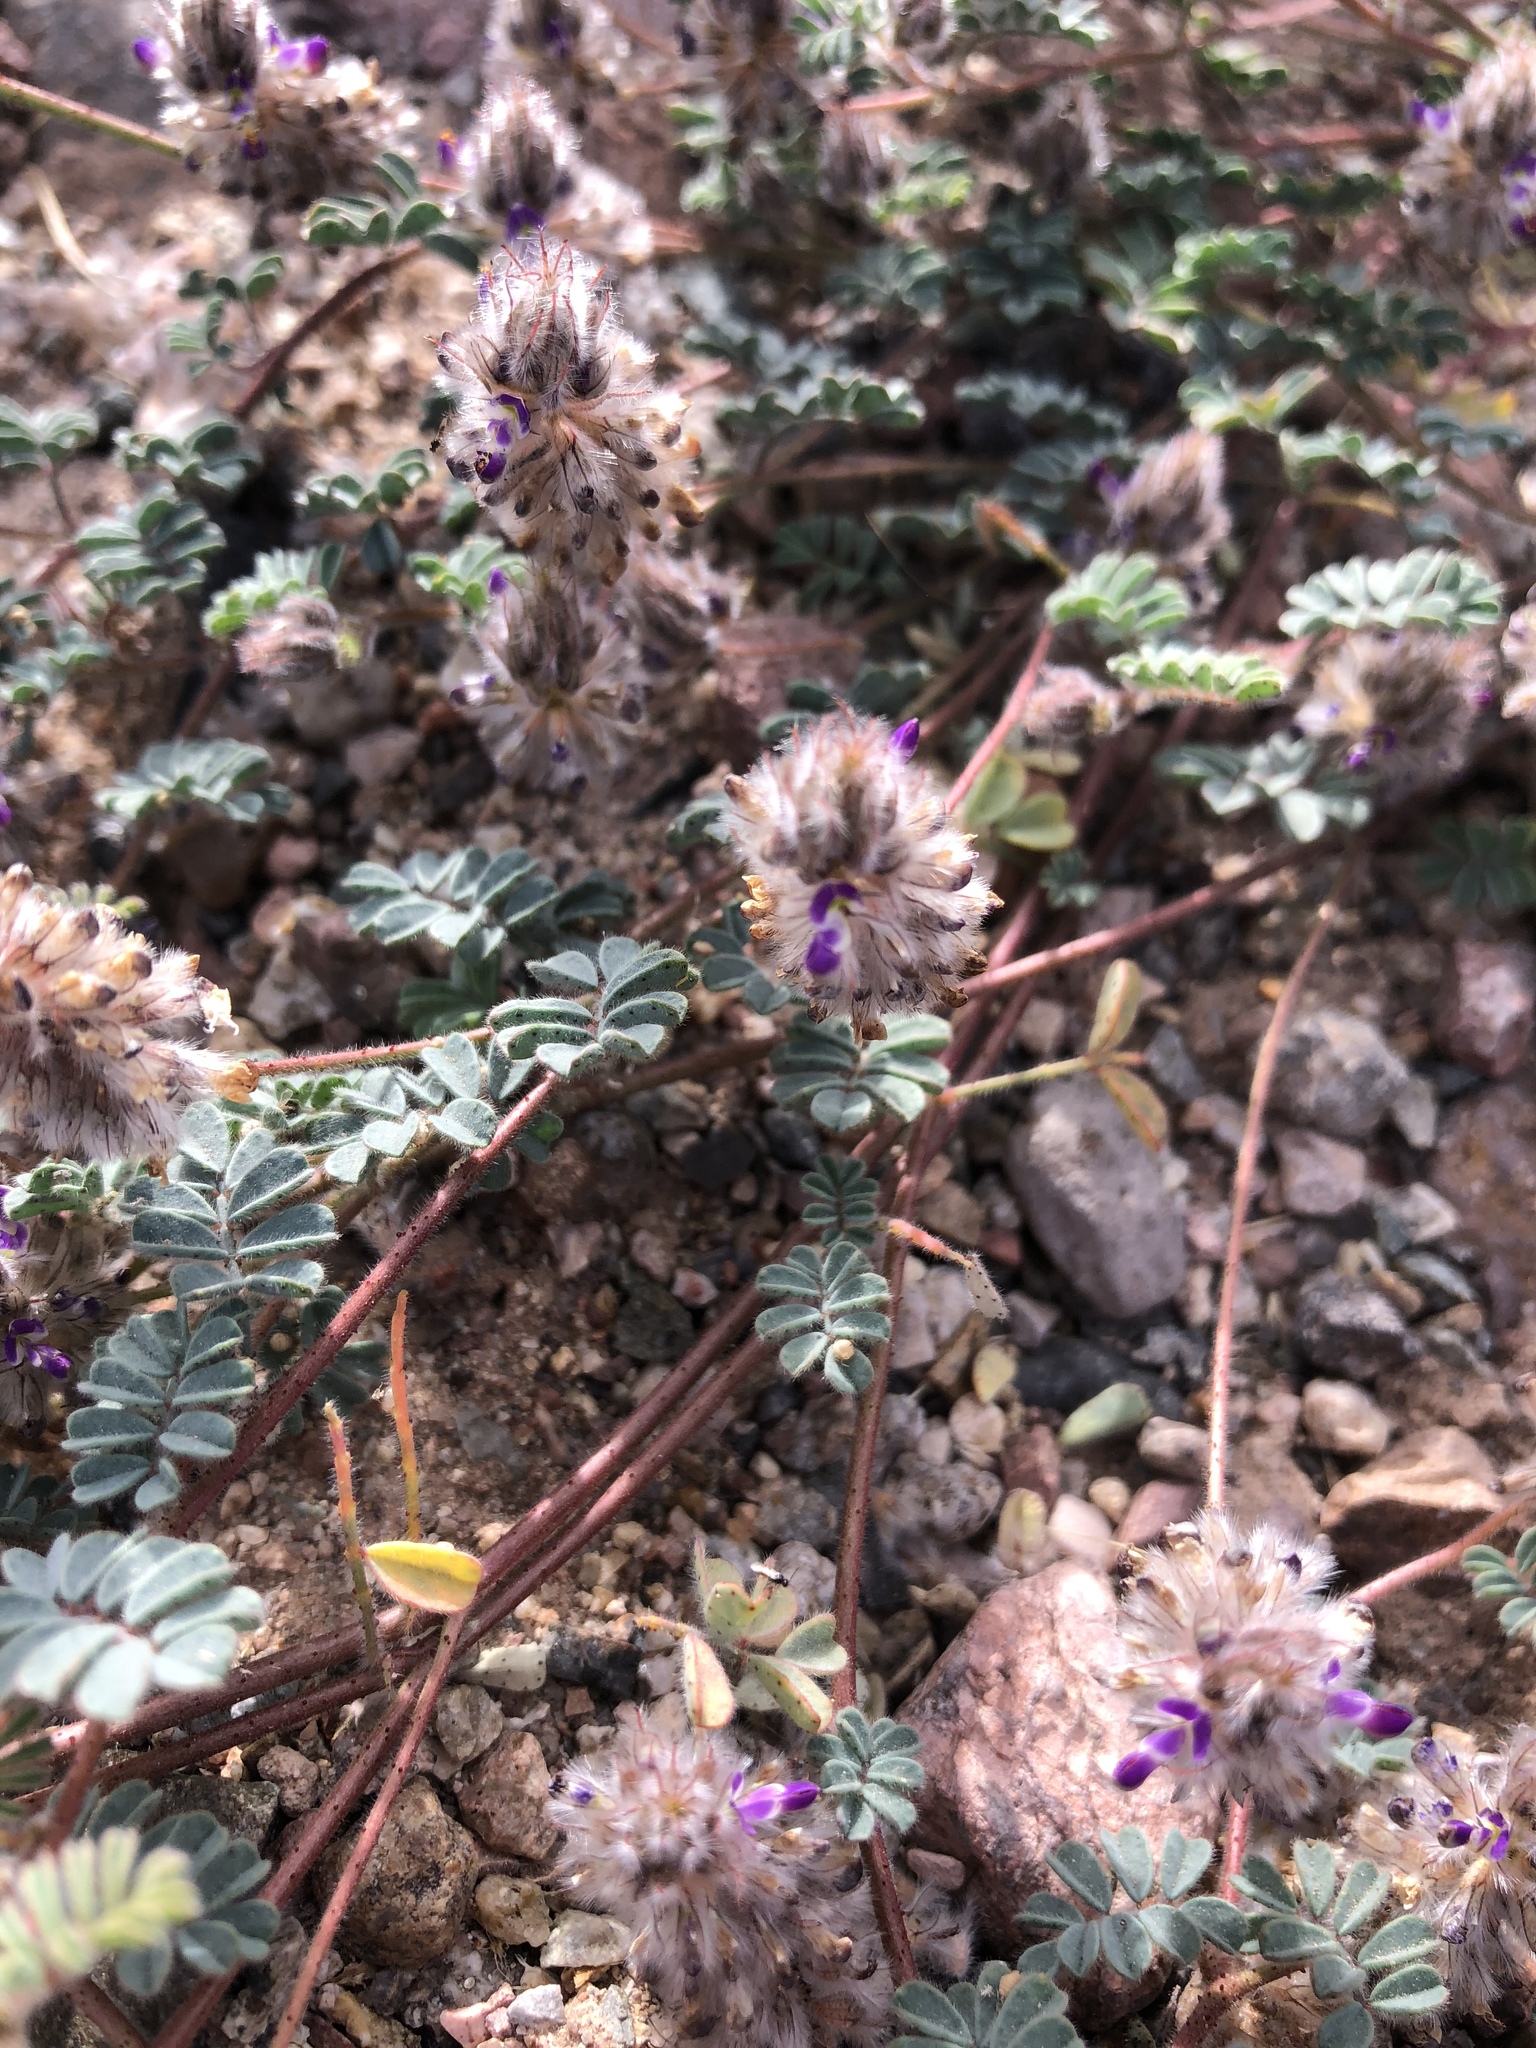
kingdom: Plantae
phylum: Tracheophyta
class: Magnoliopsida
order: Fabales
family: Fabaceae
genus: Dalea
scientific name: Dalea mollis
